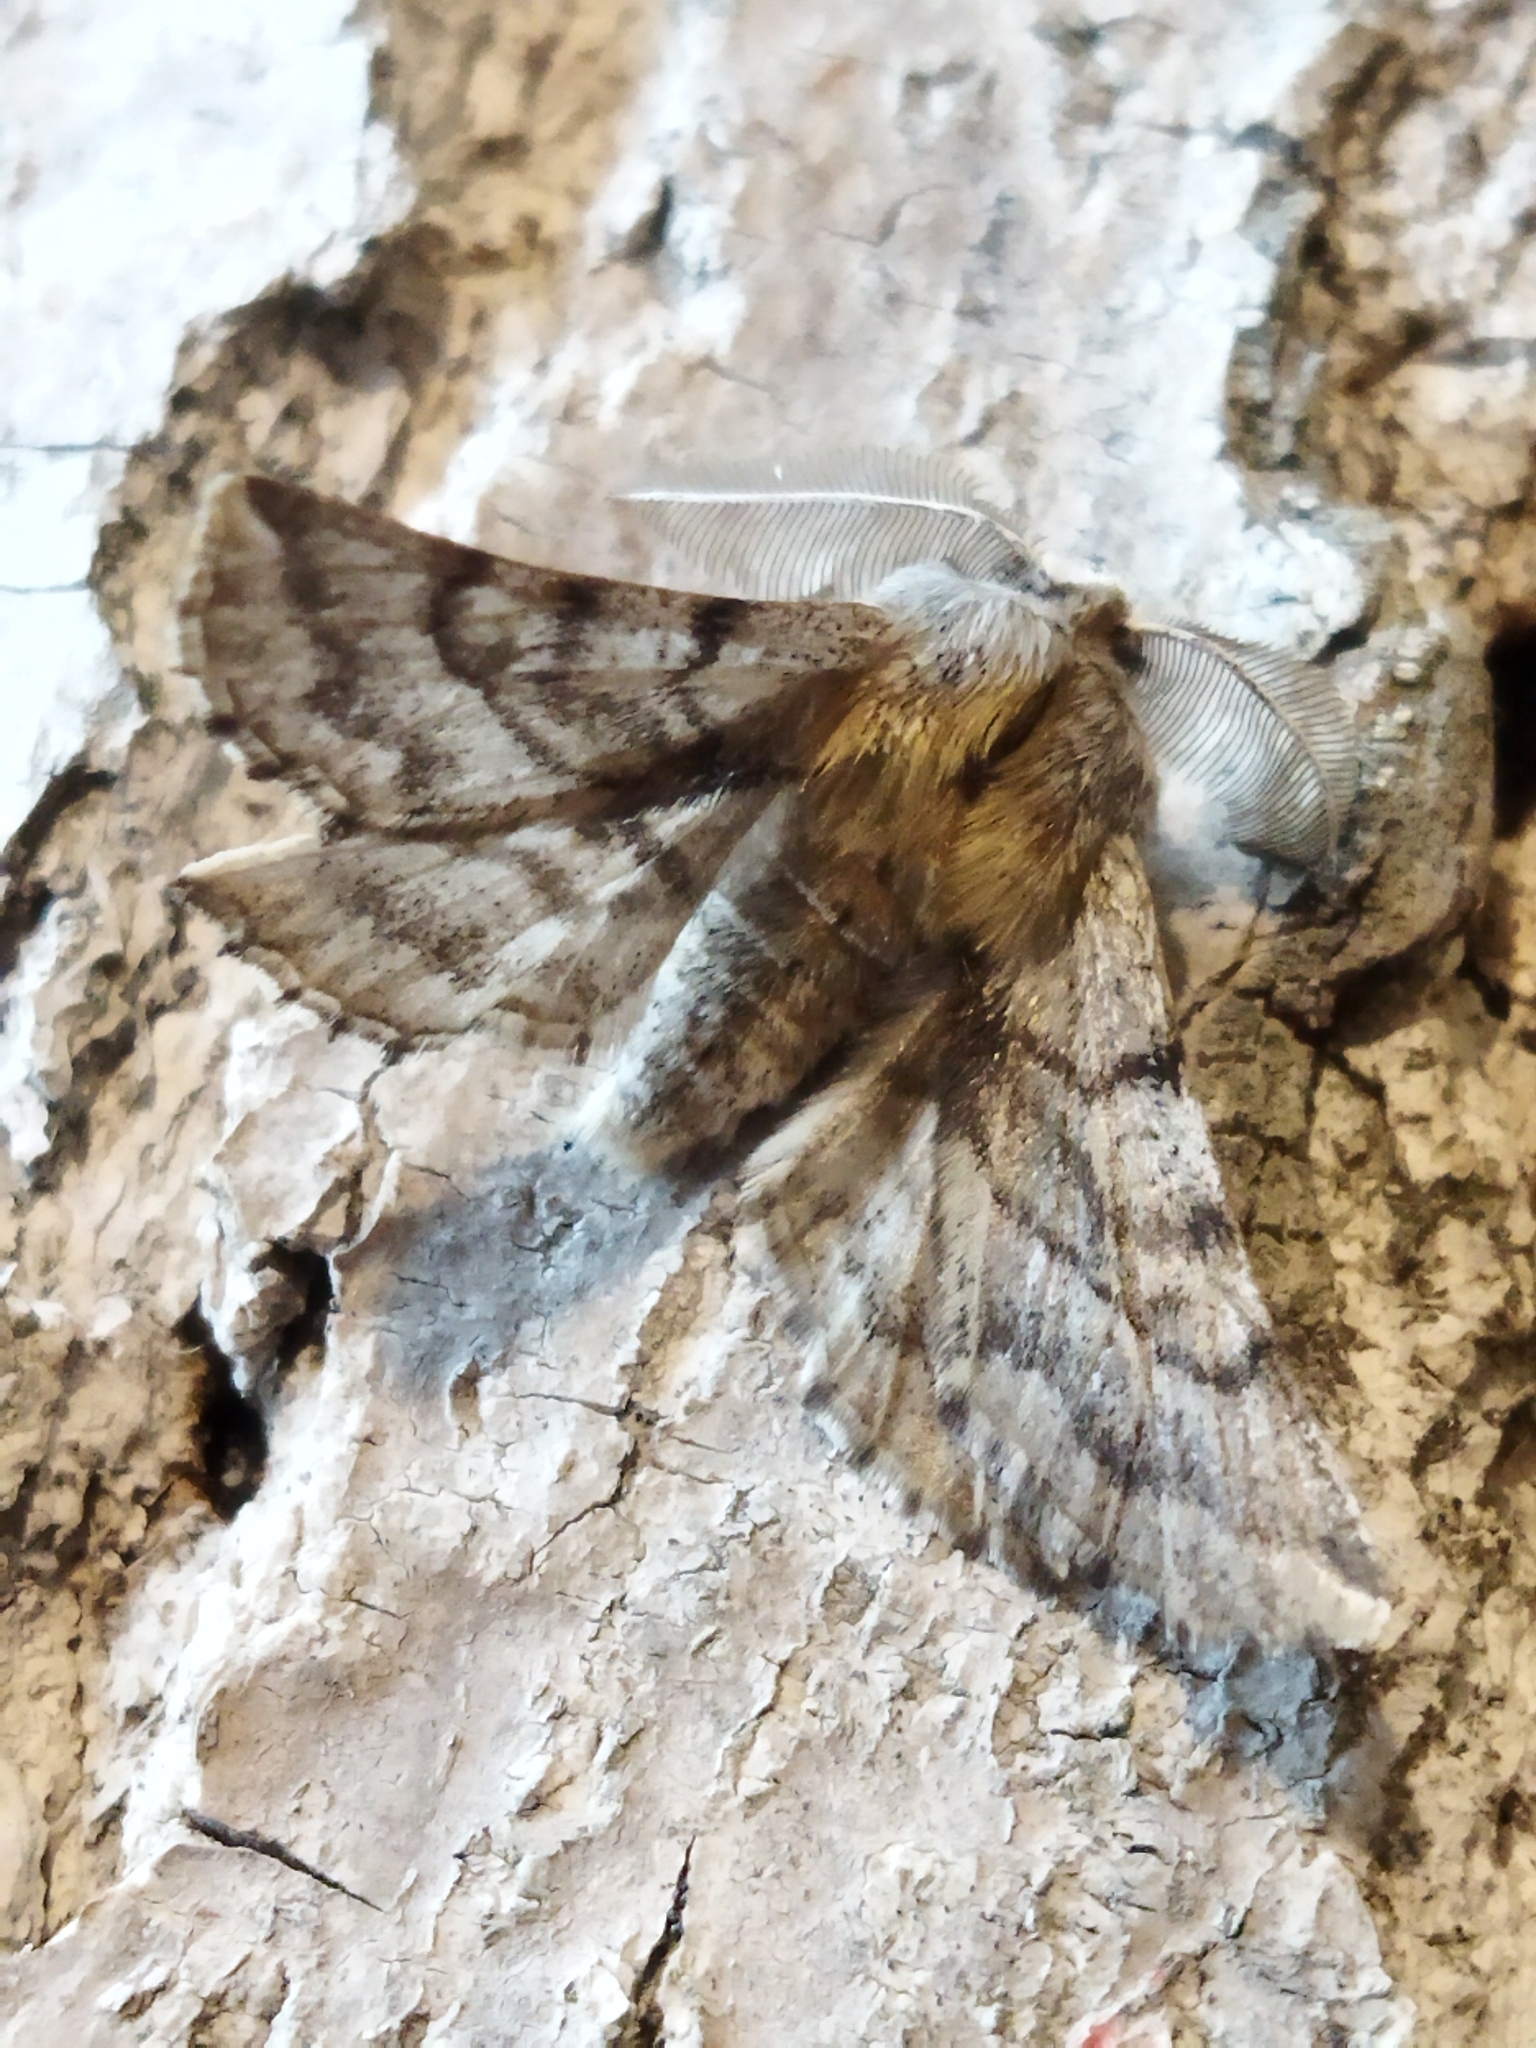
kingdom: Animalia
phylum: Arthropoda
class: Insecta
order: Lepidoptera
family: Geometridae
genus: Apochima
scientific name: Apochima flabellaria
